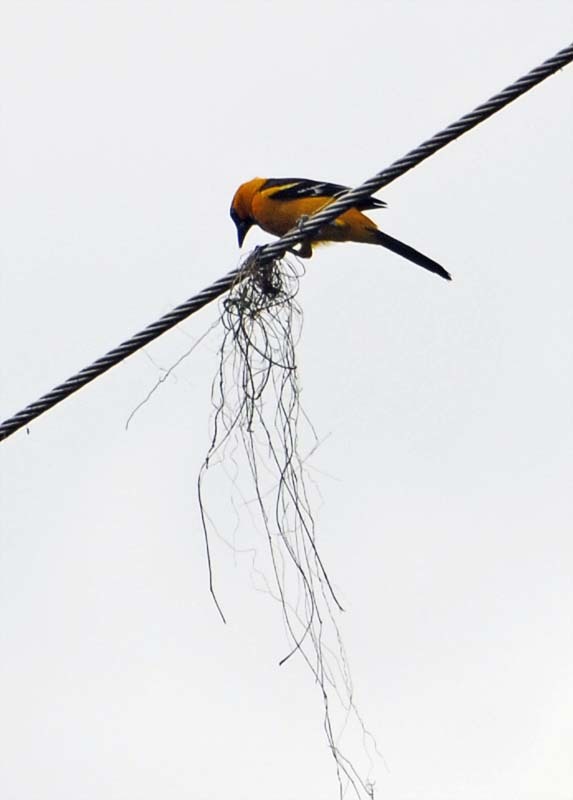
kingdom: Animalia
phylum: Chordata
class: Aves
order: Passeriformes
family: Icteridae
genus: Icterus
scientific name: Icterus gularis
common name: Altamira oriole
